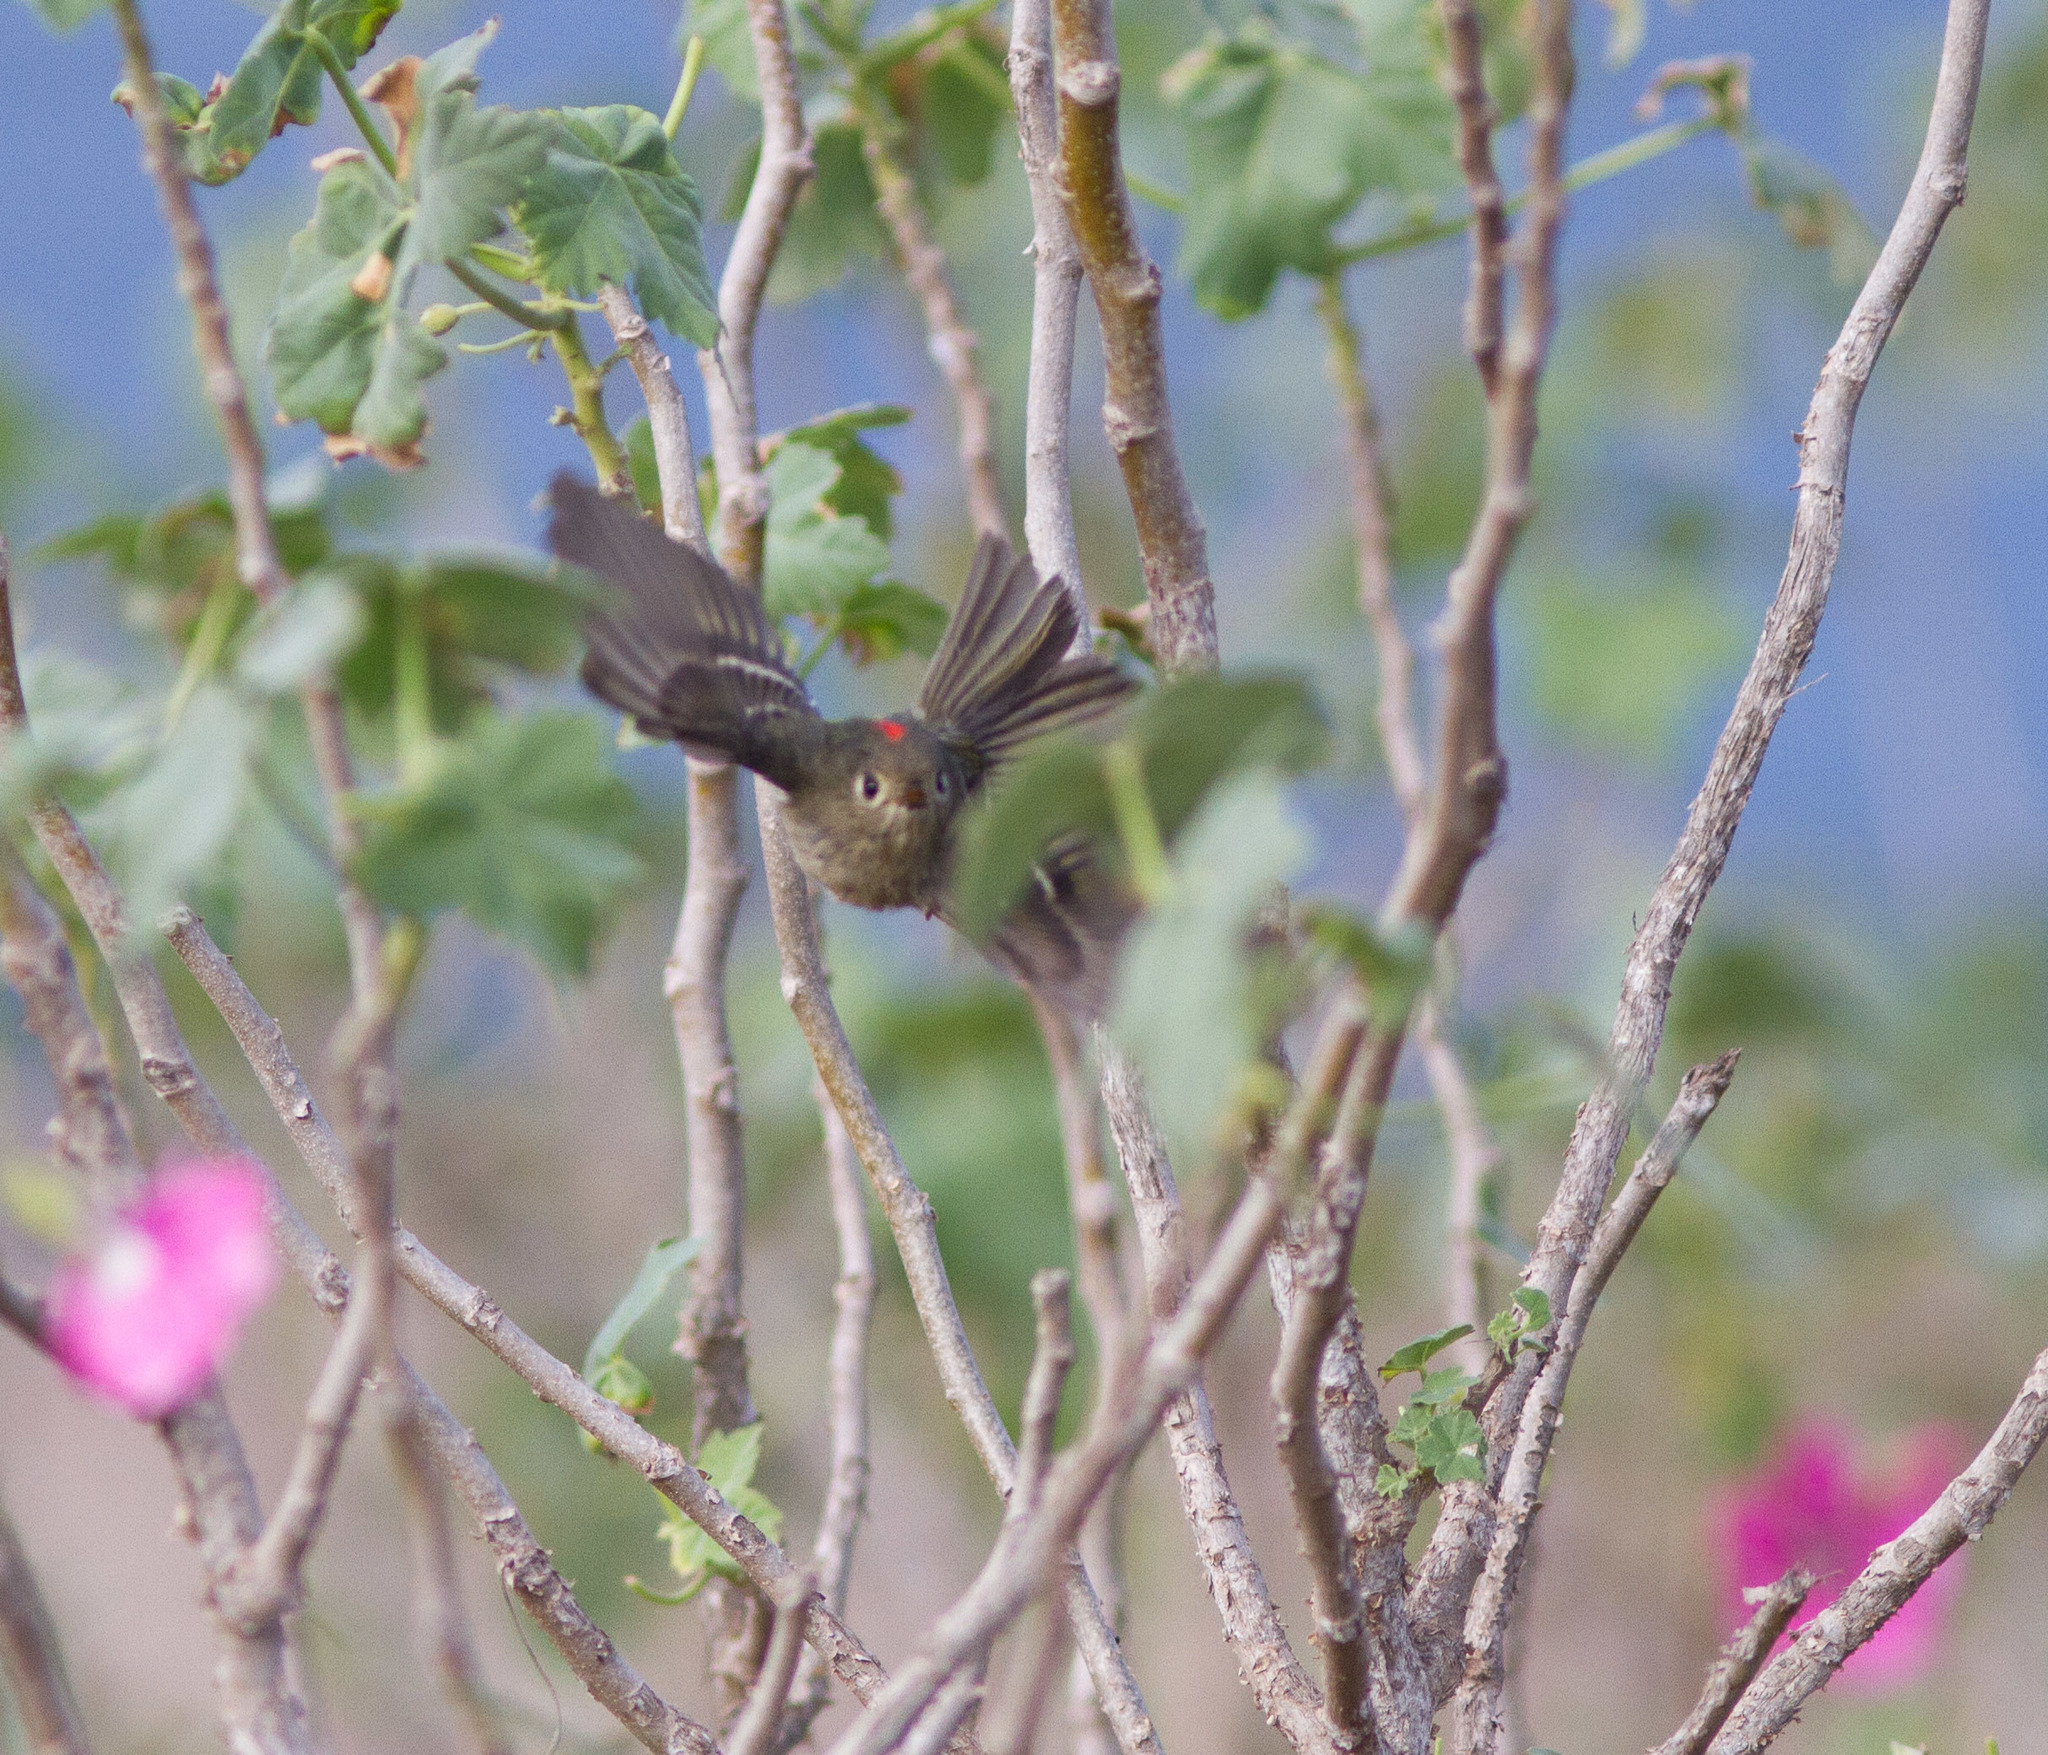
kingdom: Animalia
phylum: Chordata
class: Aves
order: Passeriformes
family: Regulidae
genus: Regulus
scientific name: Regulus calendula
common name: Ruby-crowned kinglet
